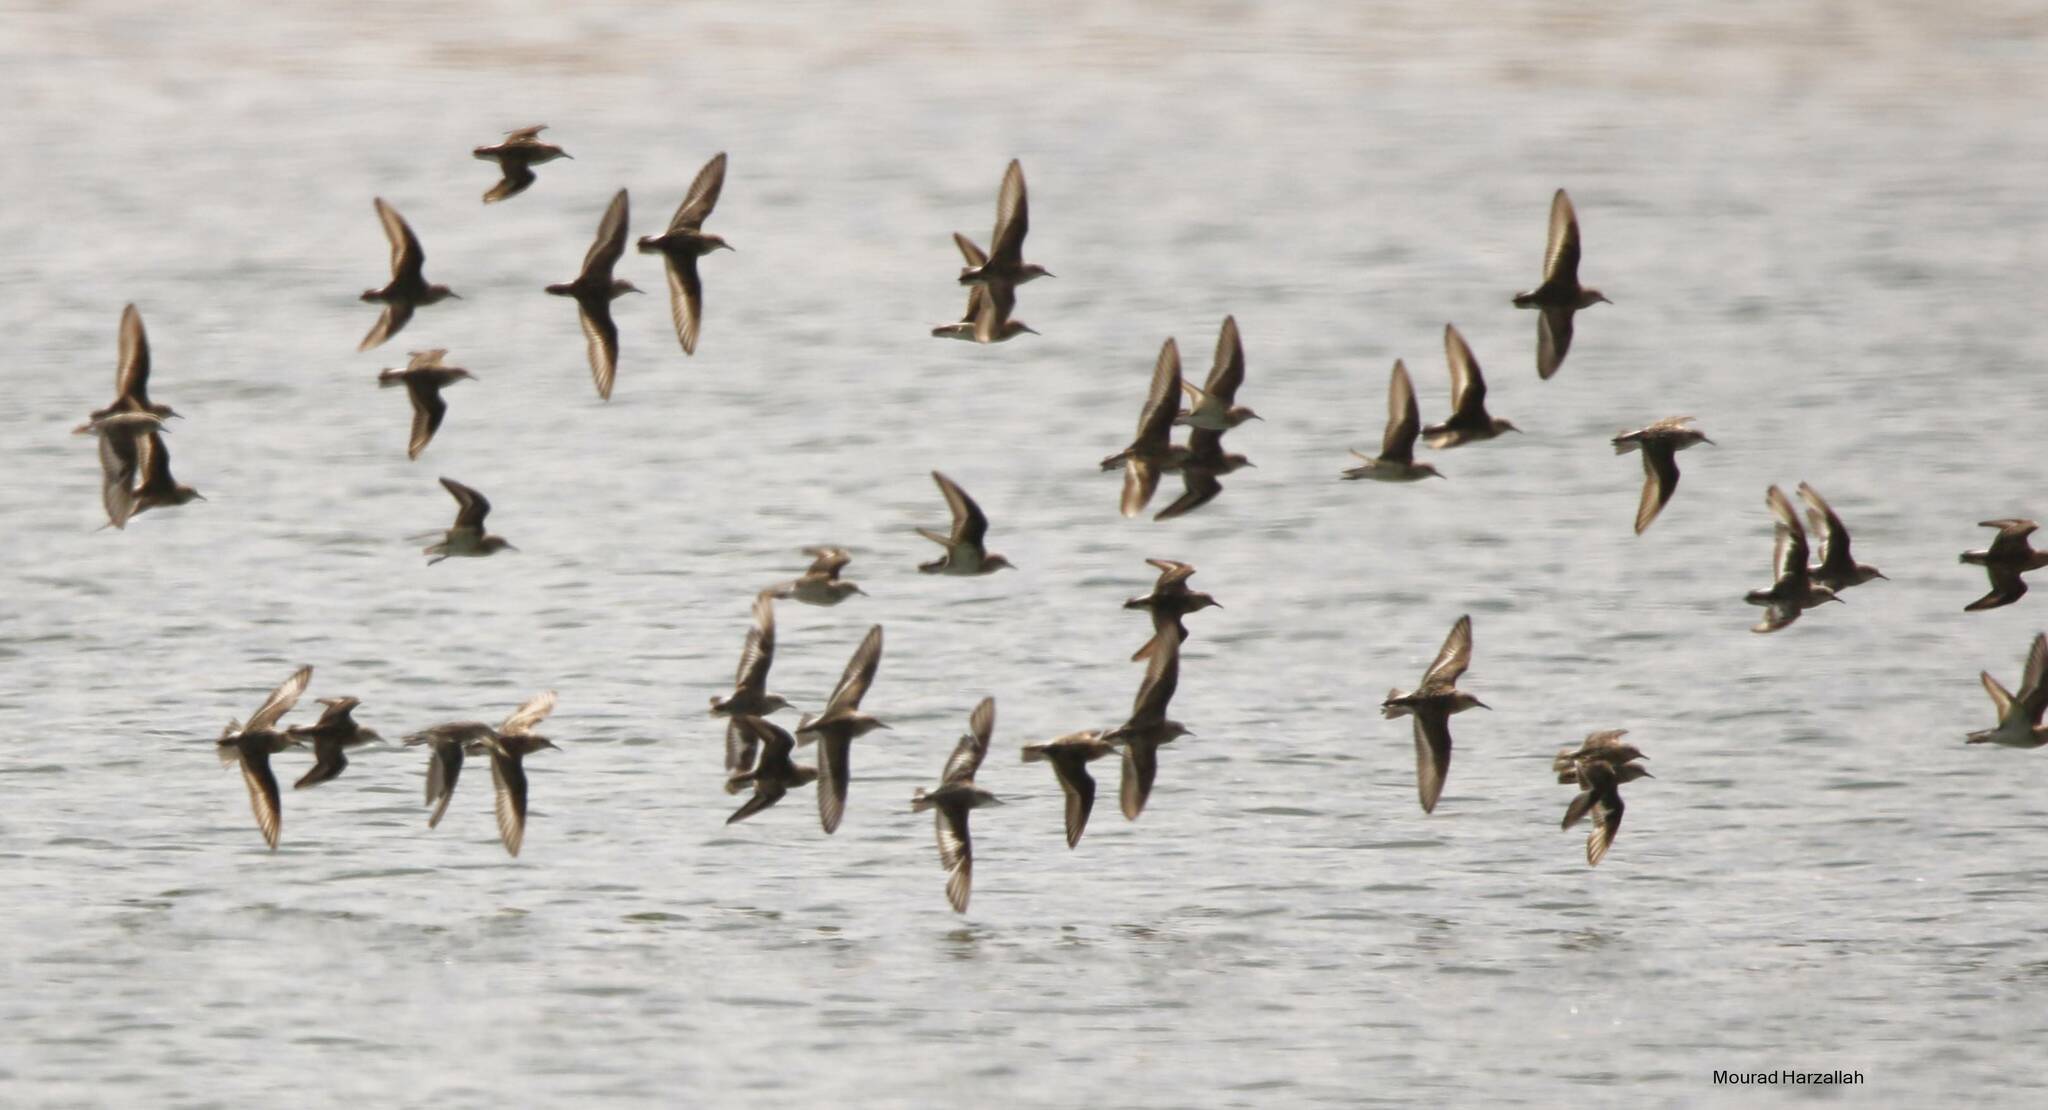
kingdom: Animalia
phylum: Chordata
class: Aves
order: Charadriiformes
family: Scolopacidae
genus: Calidris
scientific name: Calidris alpina
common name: Dunlin
